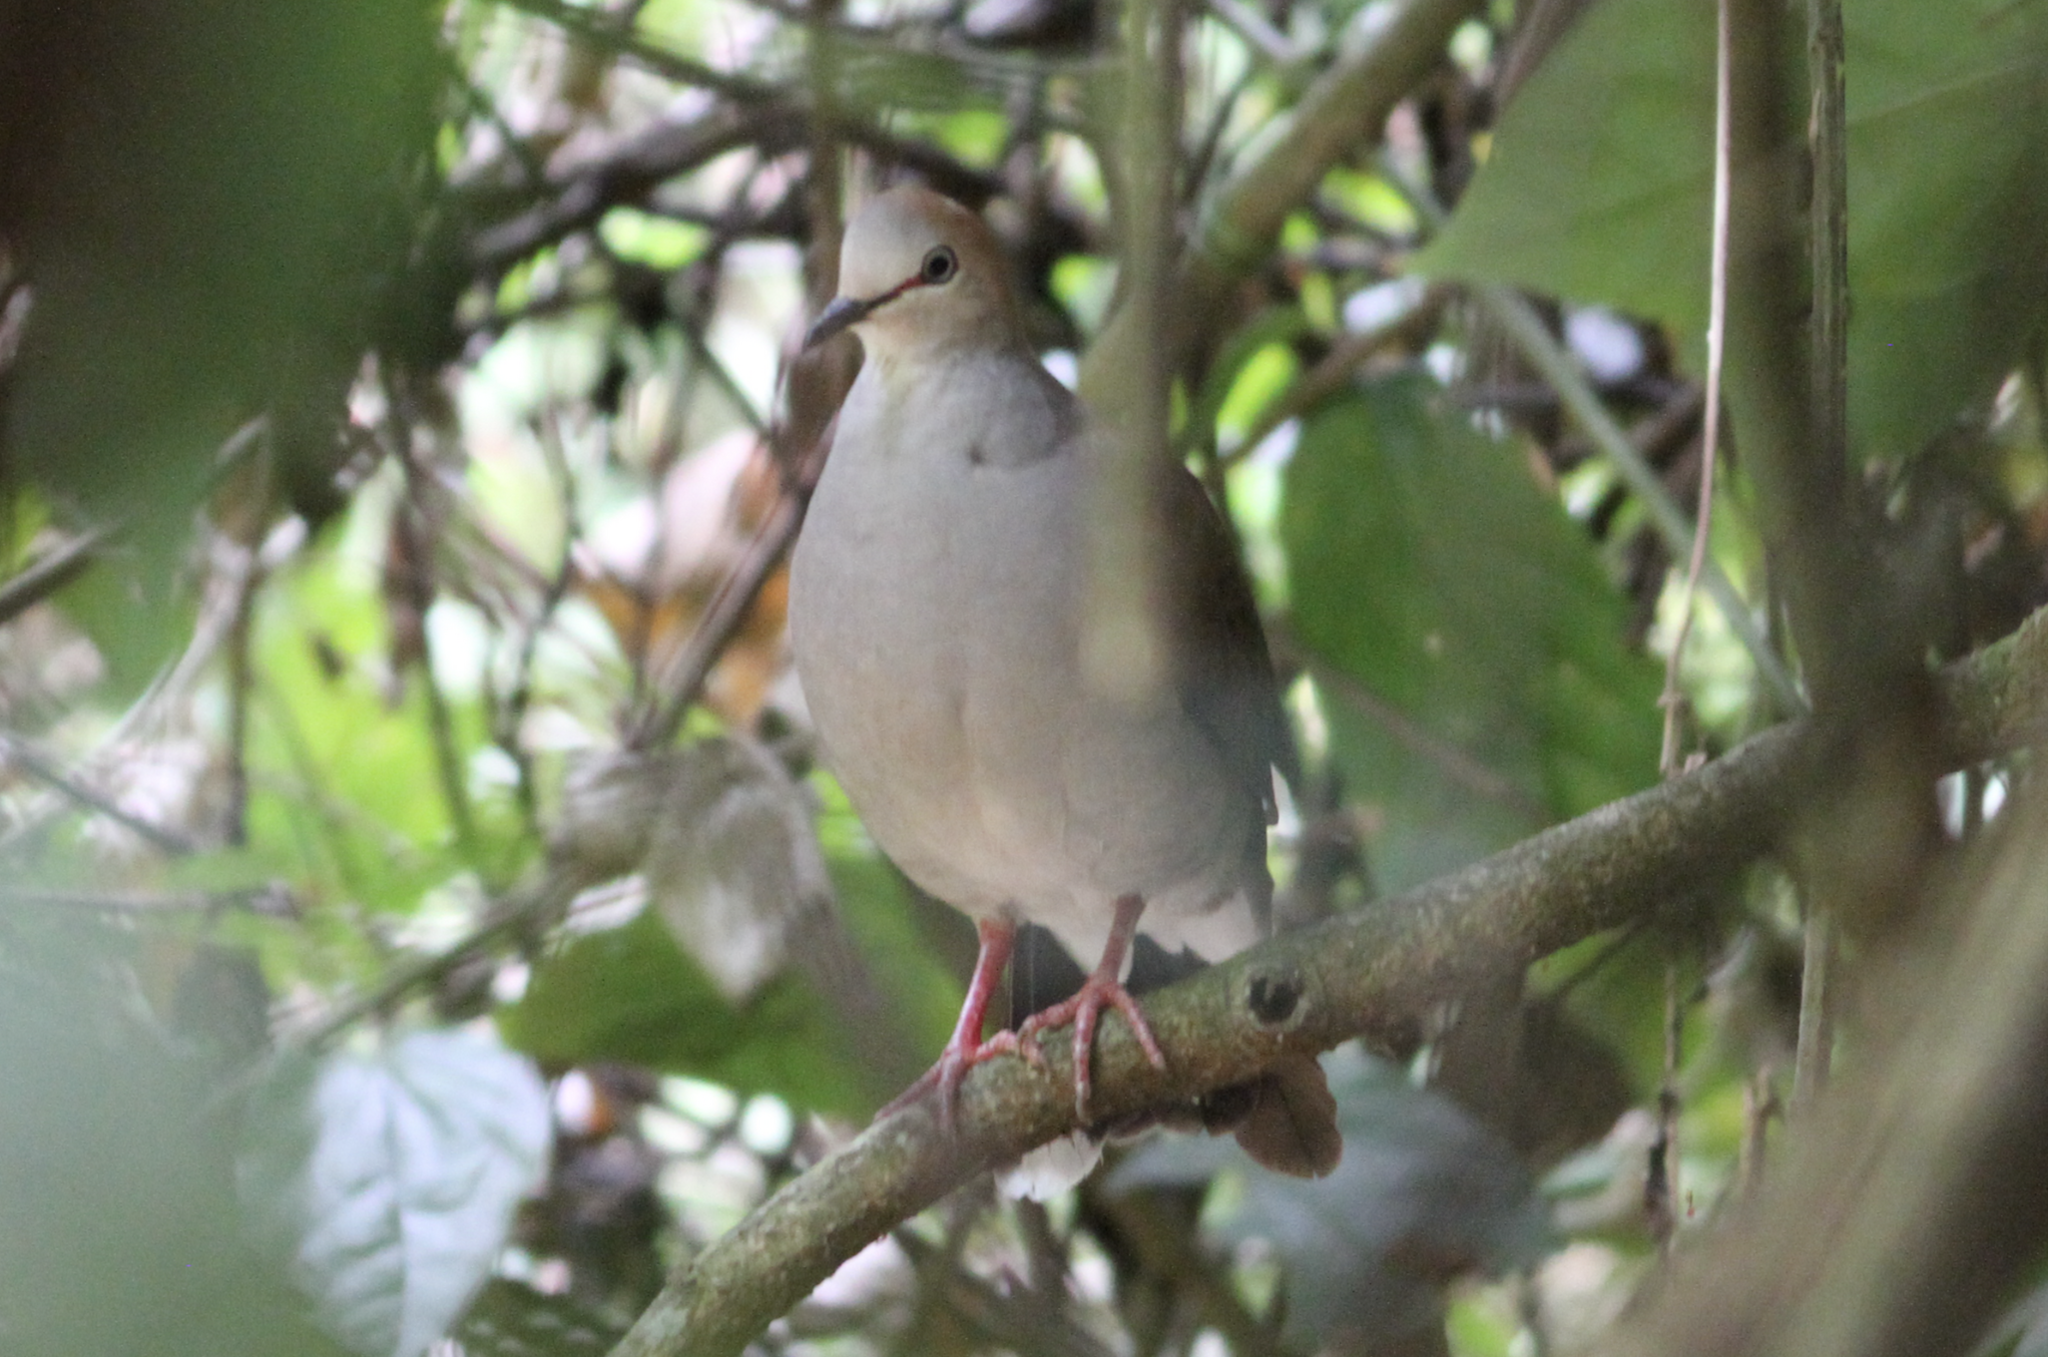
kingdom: Animalia
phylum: Chordata
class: Aves
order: Columbiformes
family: Columbidae
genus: Leptotila
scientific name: Leptotila cassinii
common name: Grey-chested dove
